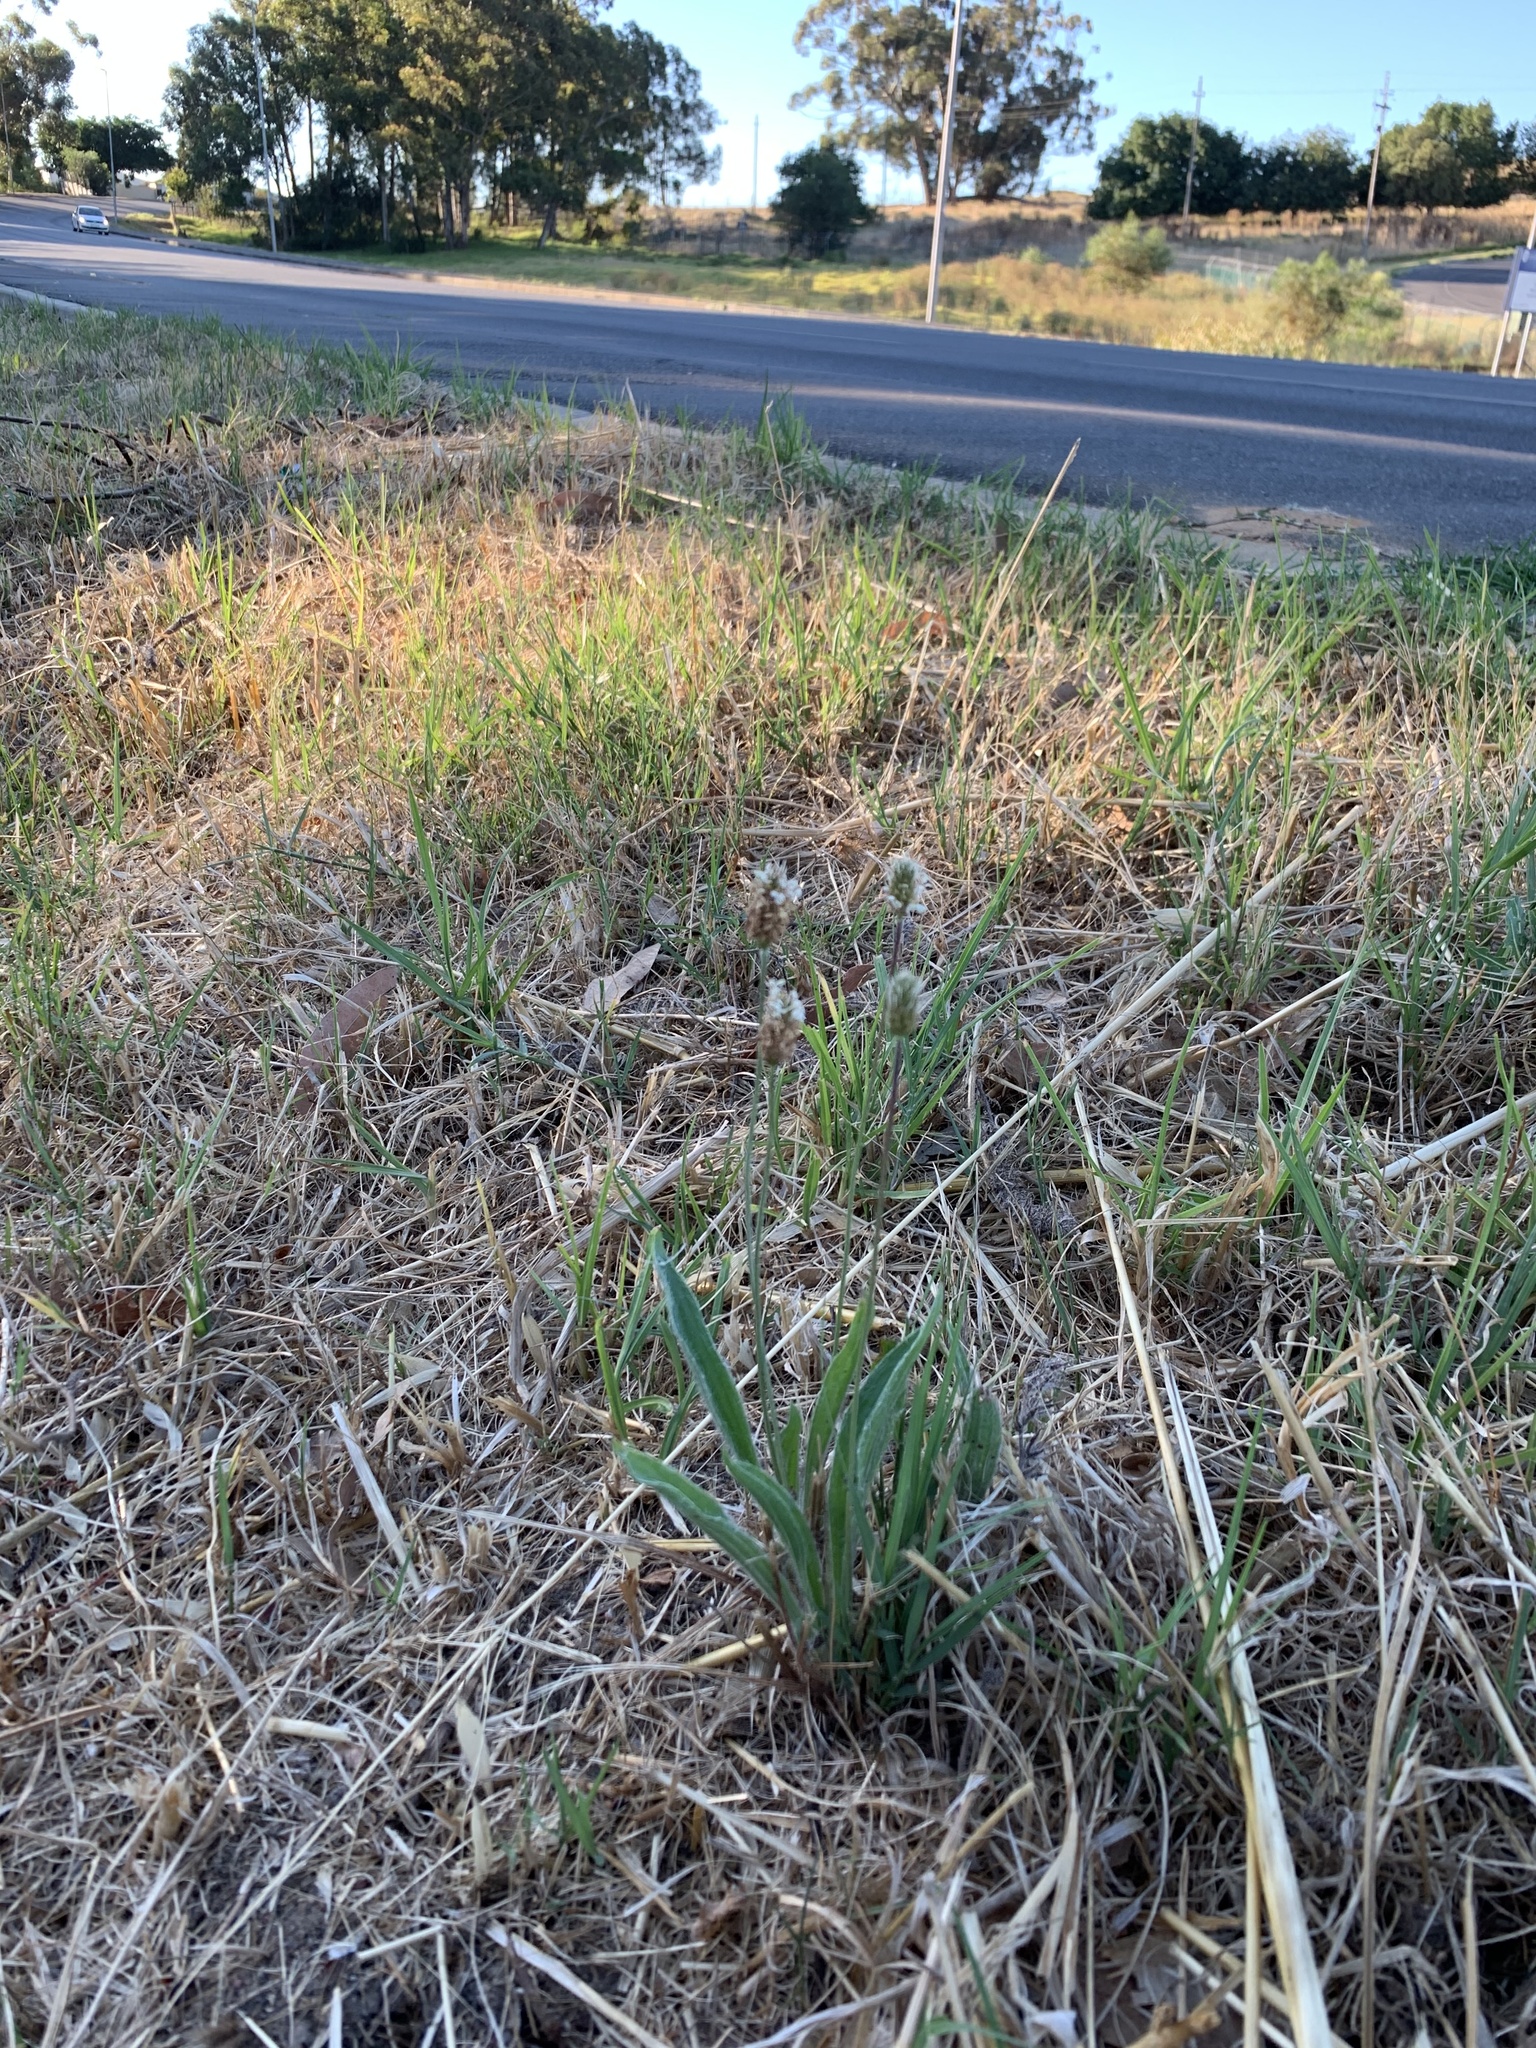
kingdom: Plantae
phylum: Tracheophyta
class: Magnoliopsida
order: Lamiales
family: Plantaginaceae
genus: Plantago
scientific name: Plantago lanceolata
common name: Ribwort plantain
